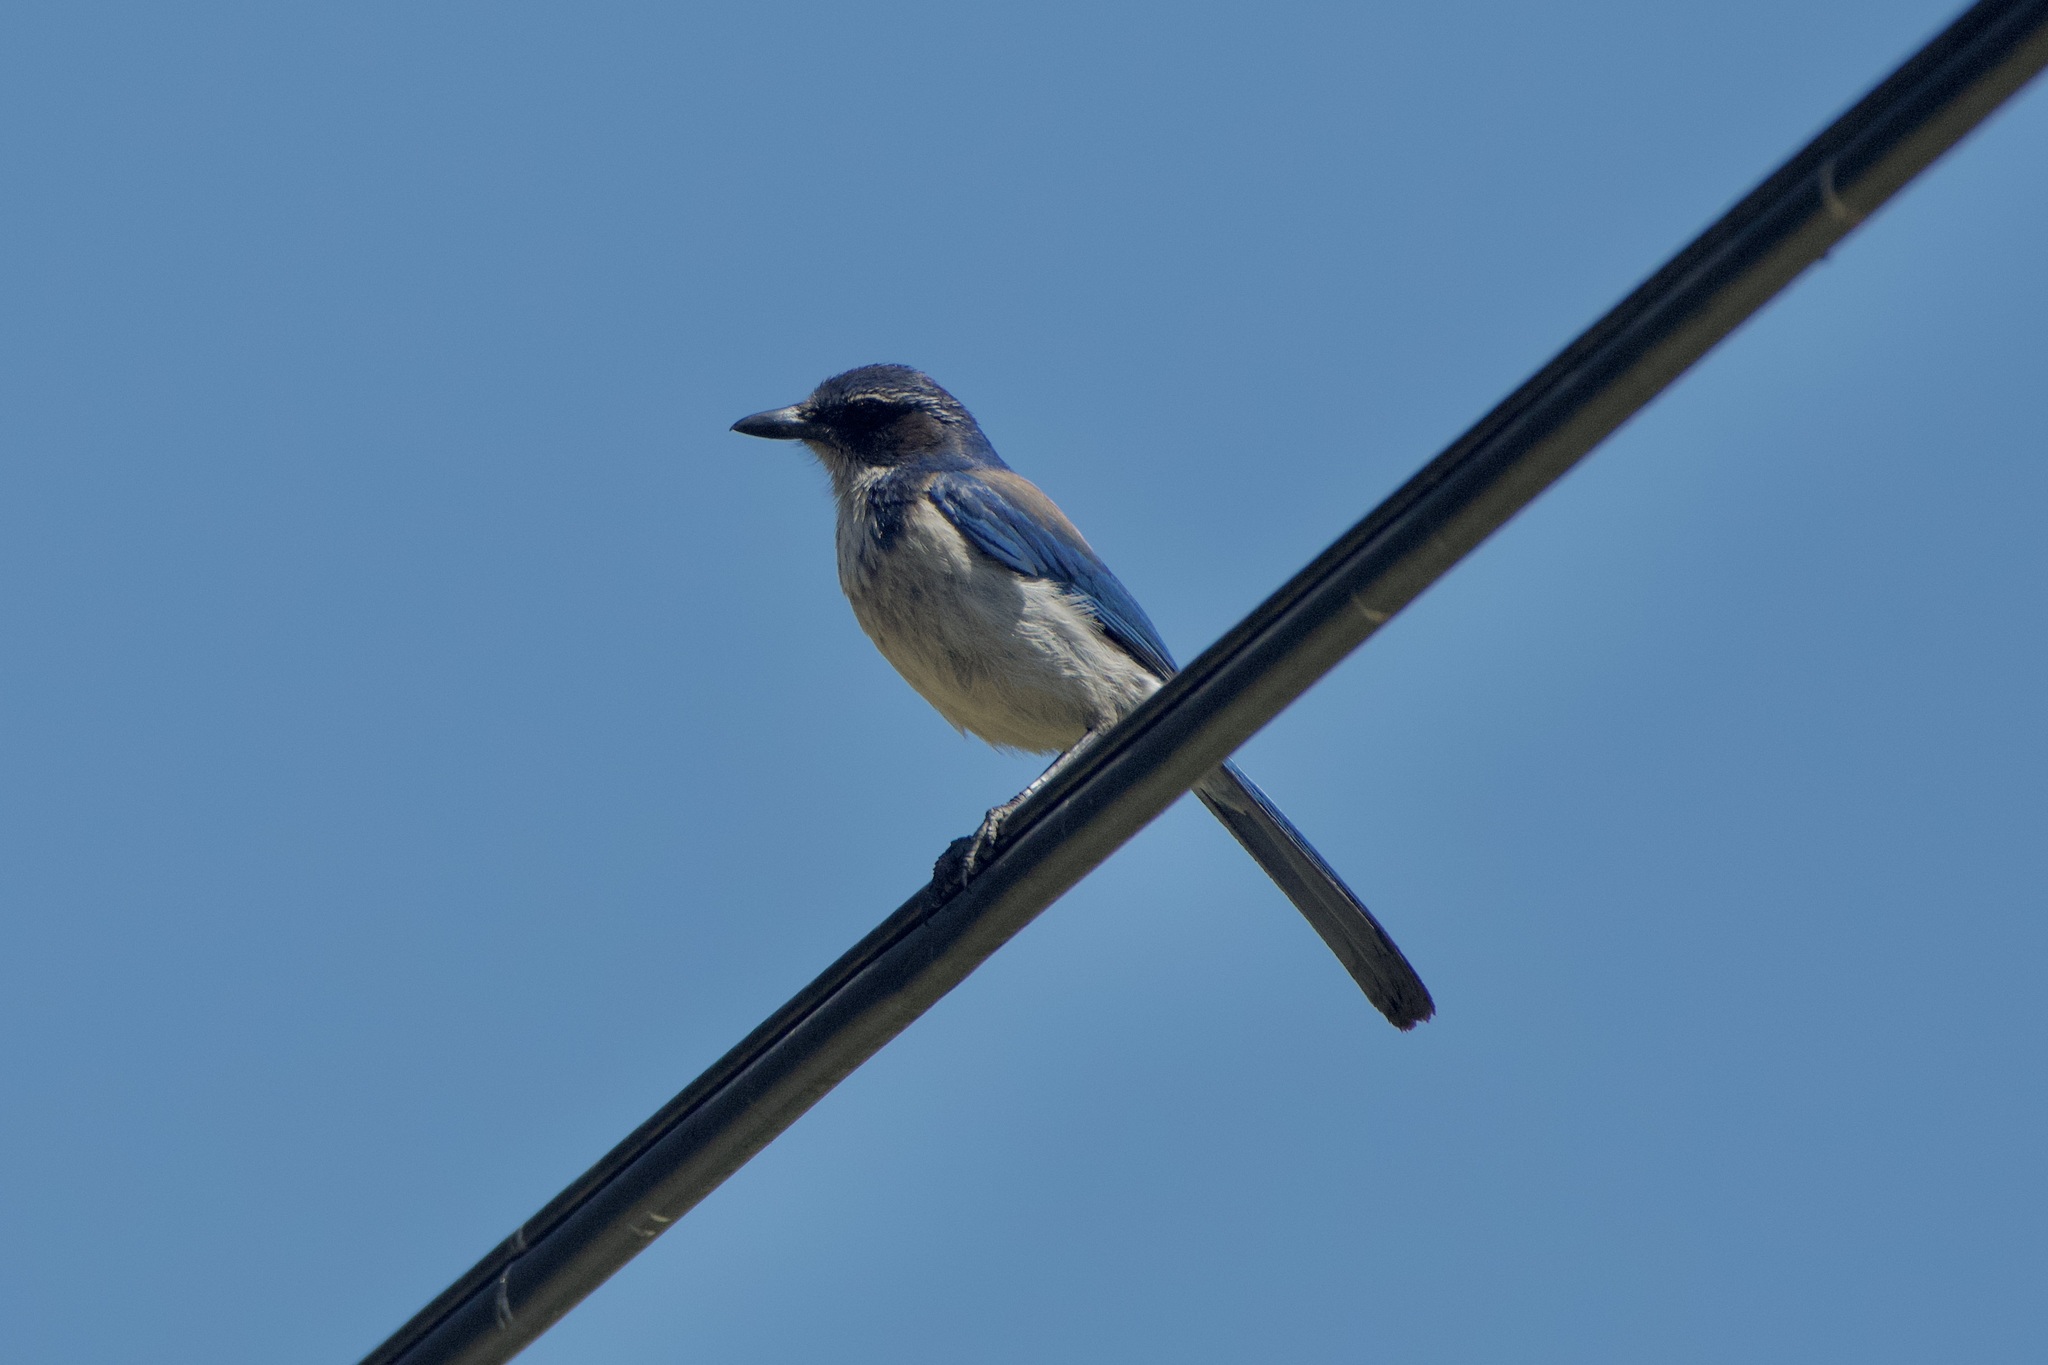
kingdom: Animalia
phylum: Chordata
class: Aves
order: Passeriformes
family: Corvidae
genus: Aphelocoma
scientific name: Aphelocoma californica
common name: California scrub-jay
